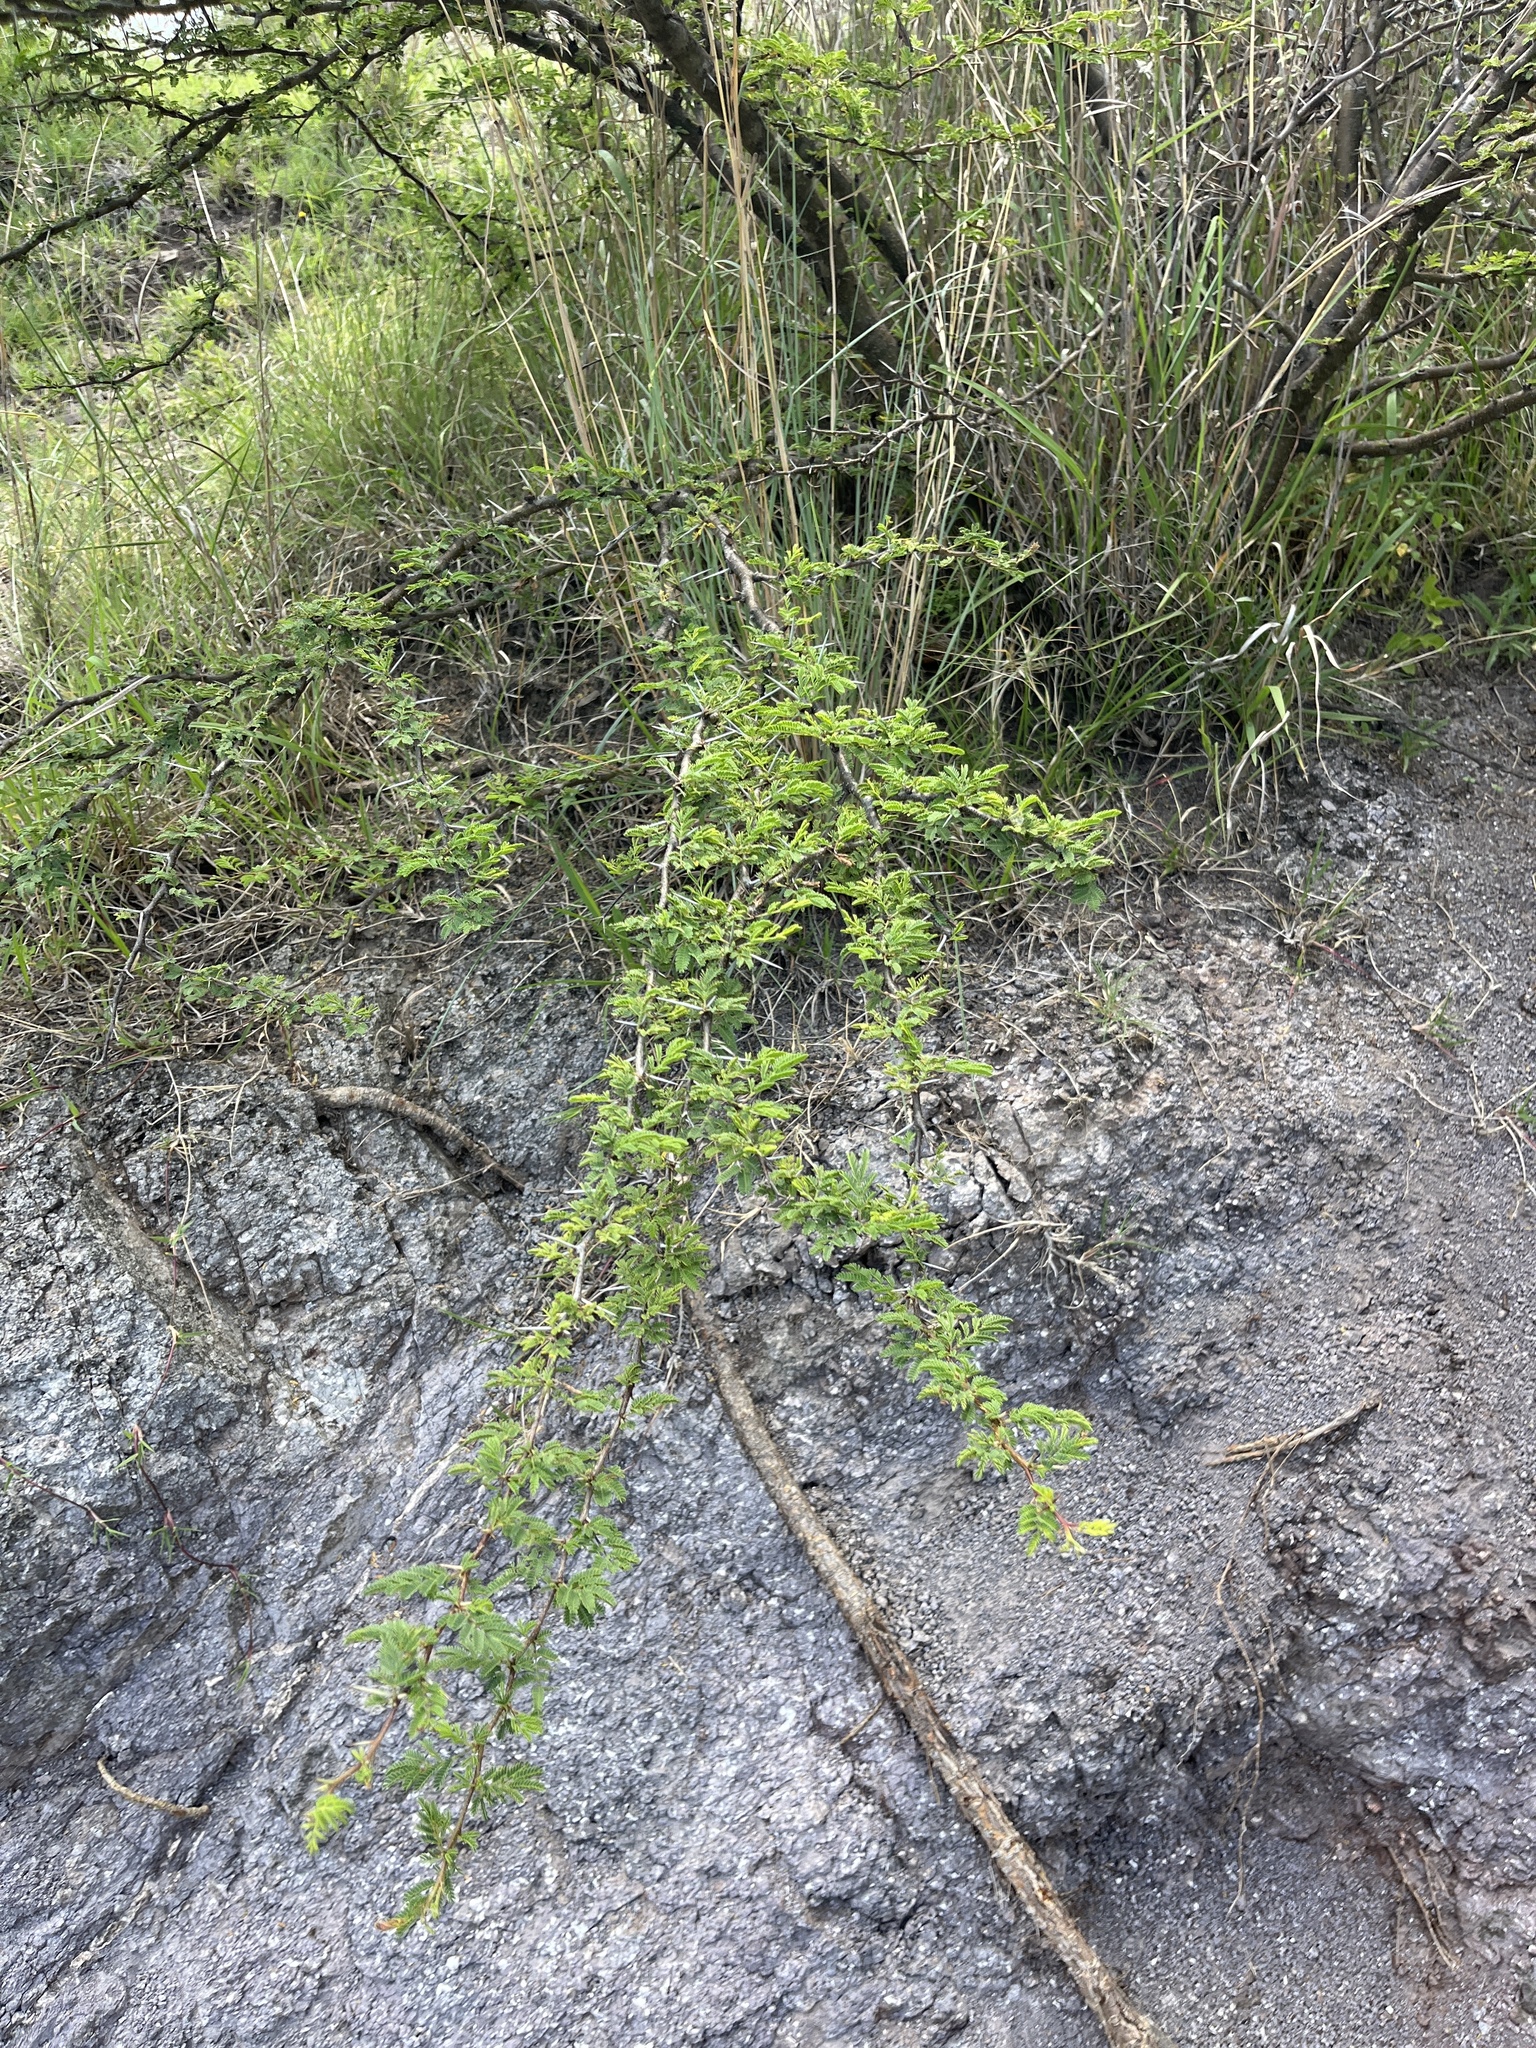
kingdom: Plantae
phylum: Tracheophyta
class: Magnoliopsida
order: Fabales
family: Fabaceae
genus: Vachellia
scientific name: Vachellia farnesiana
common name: Sweet acacia
